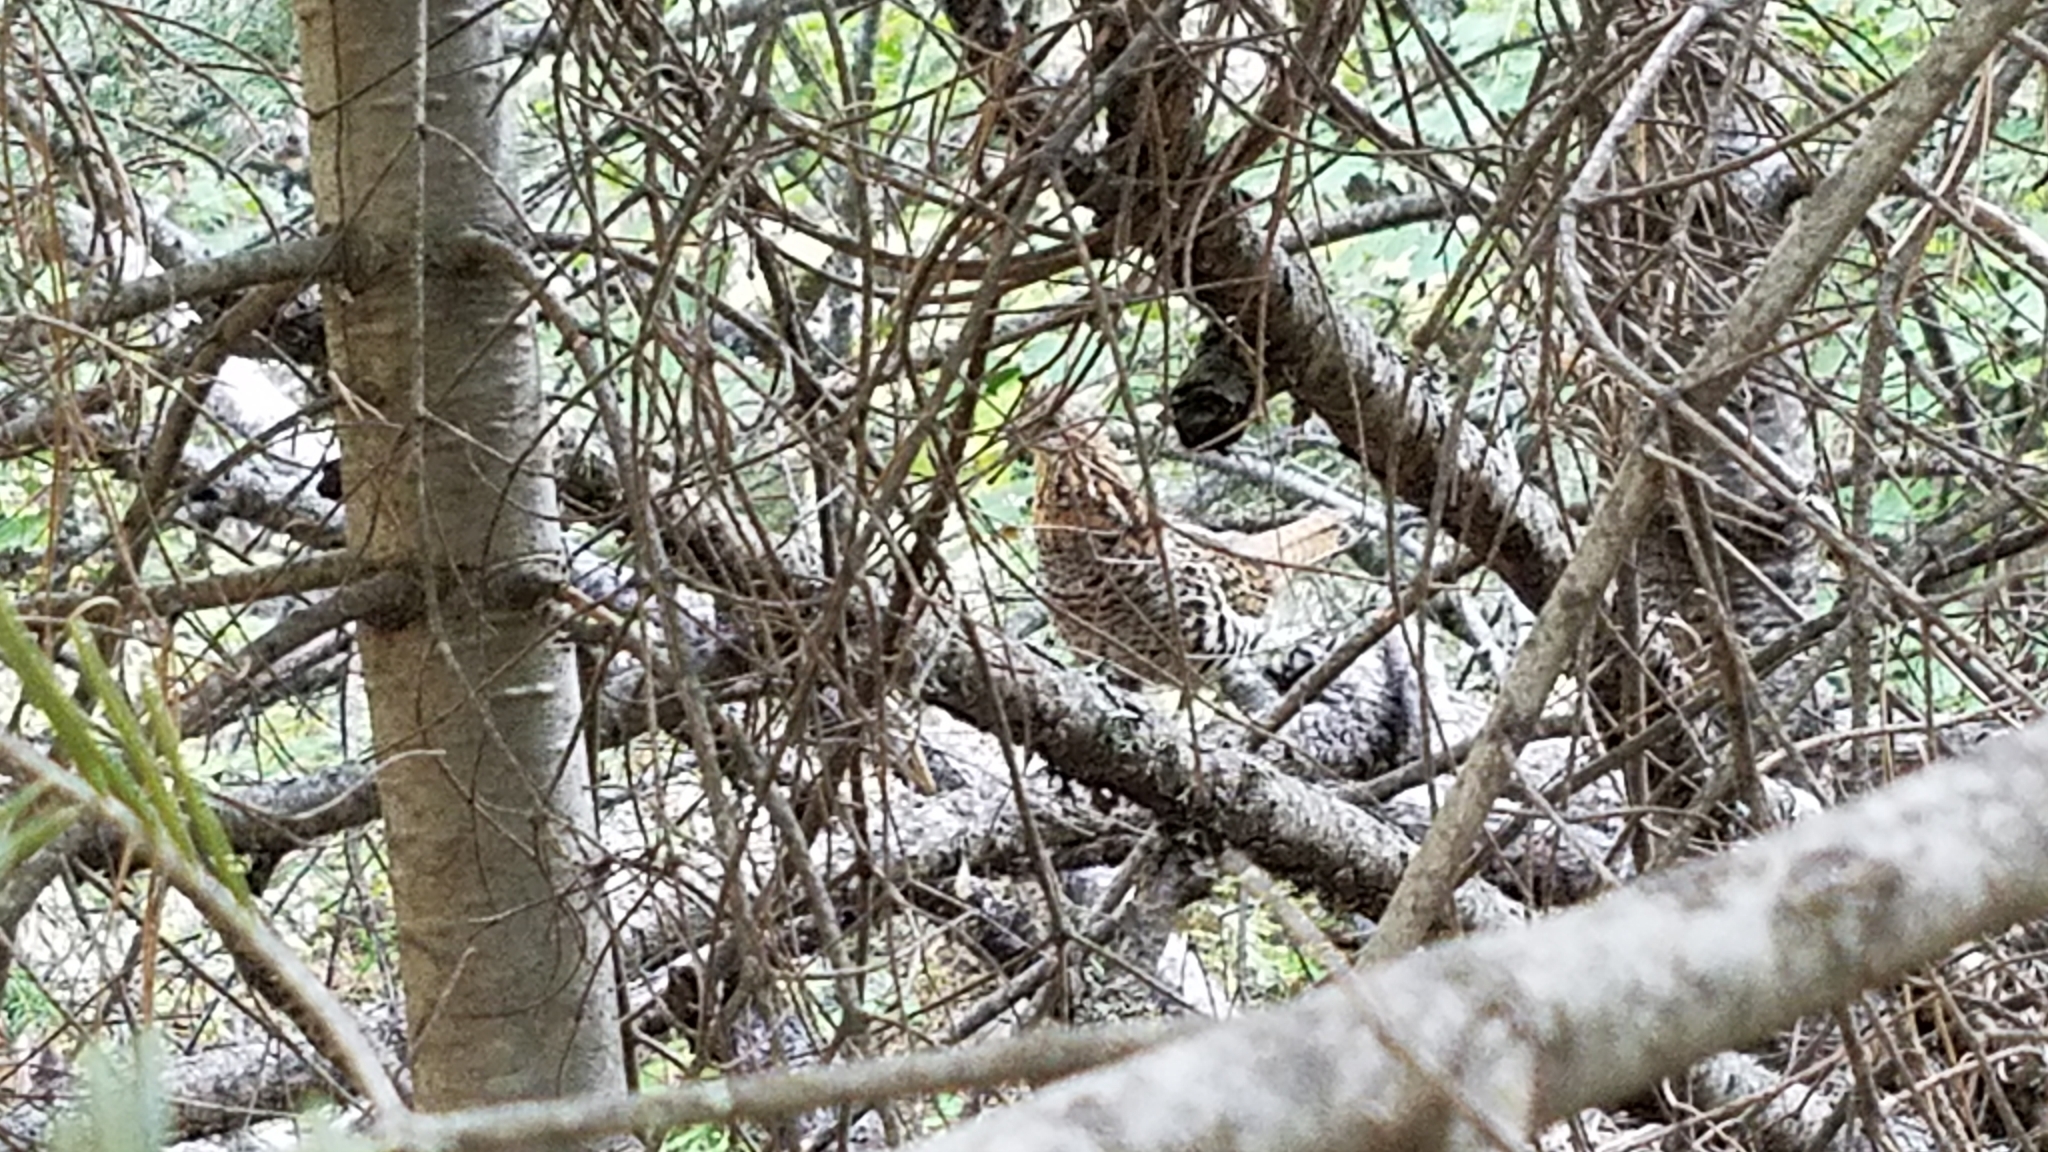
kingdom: Animalia
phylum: Chordata
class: Aves
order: Galliformes
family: Phasianidae
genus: Bonasa
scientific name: Bonasa umbellus
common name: Ruffed grouse
